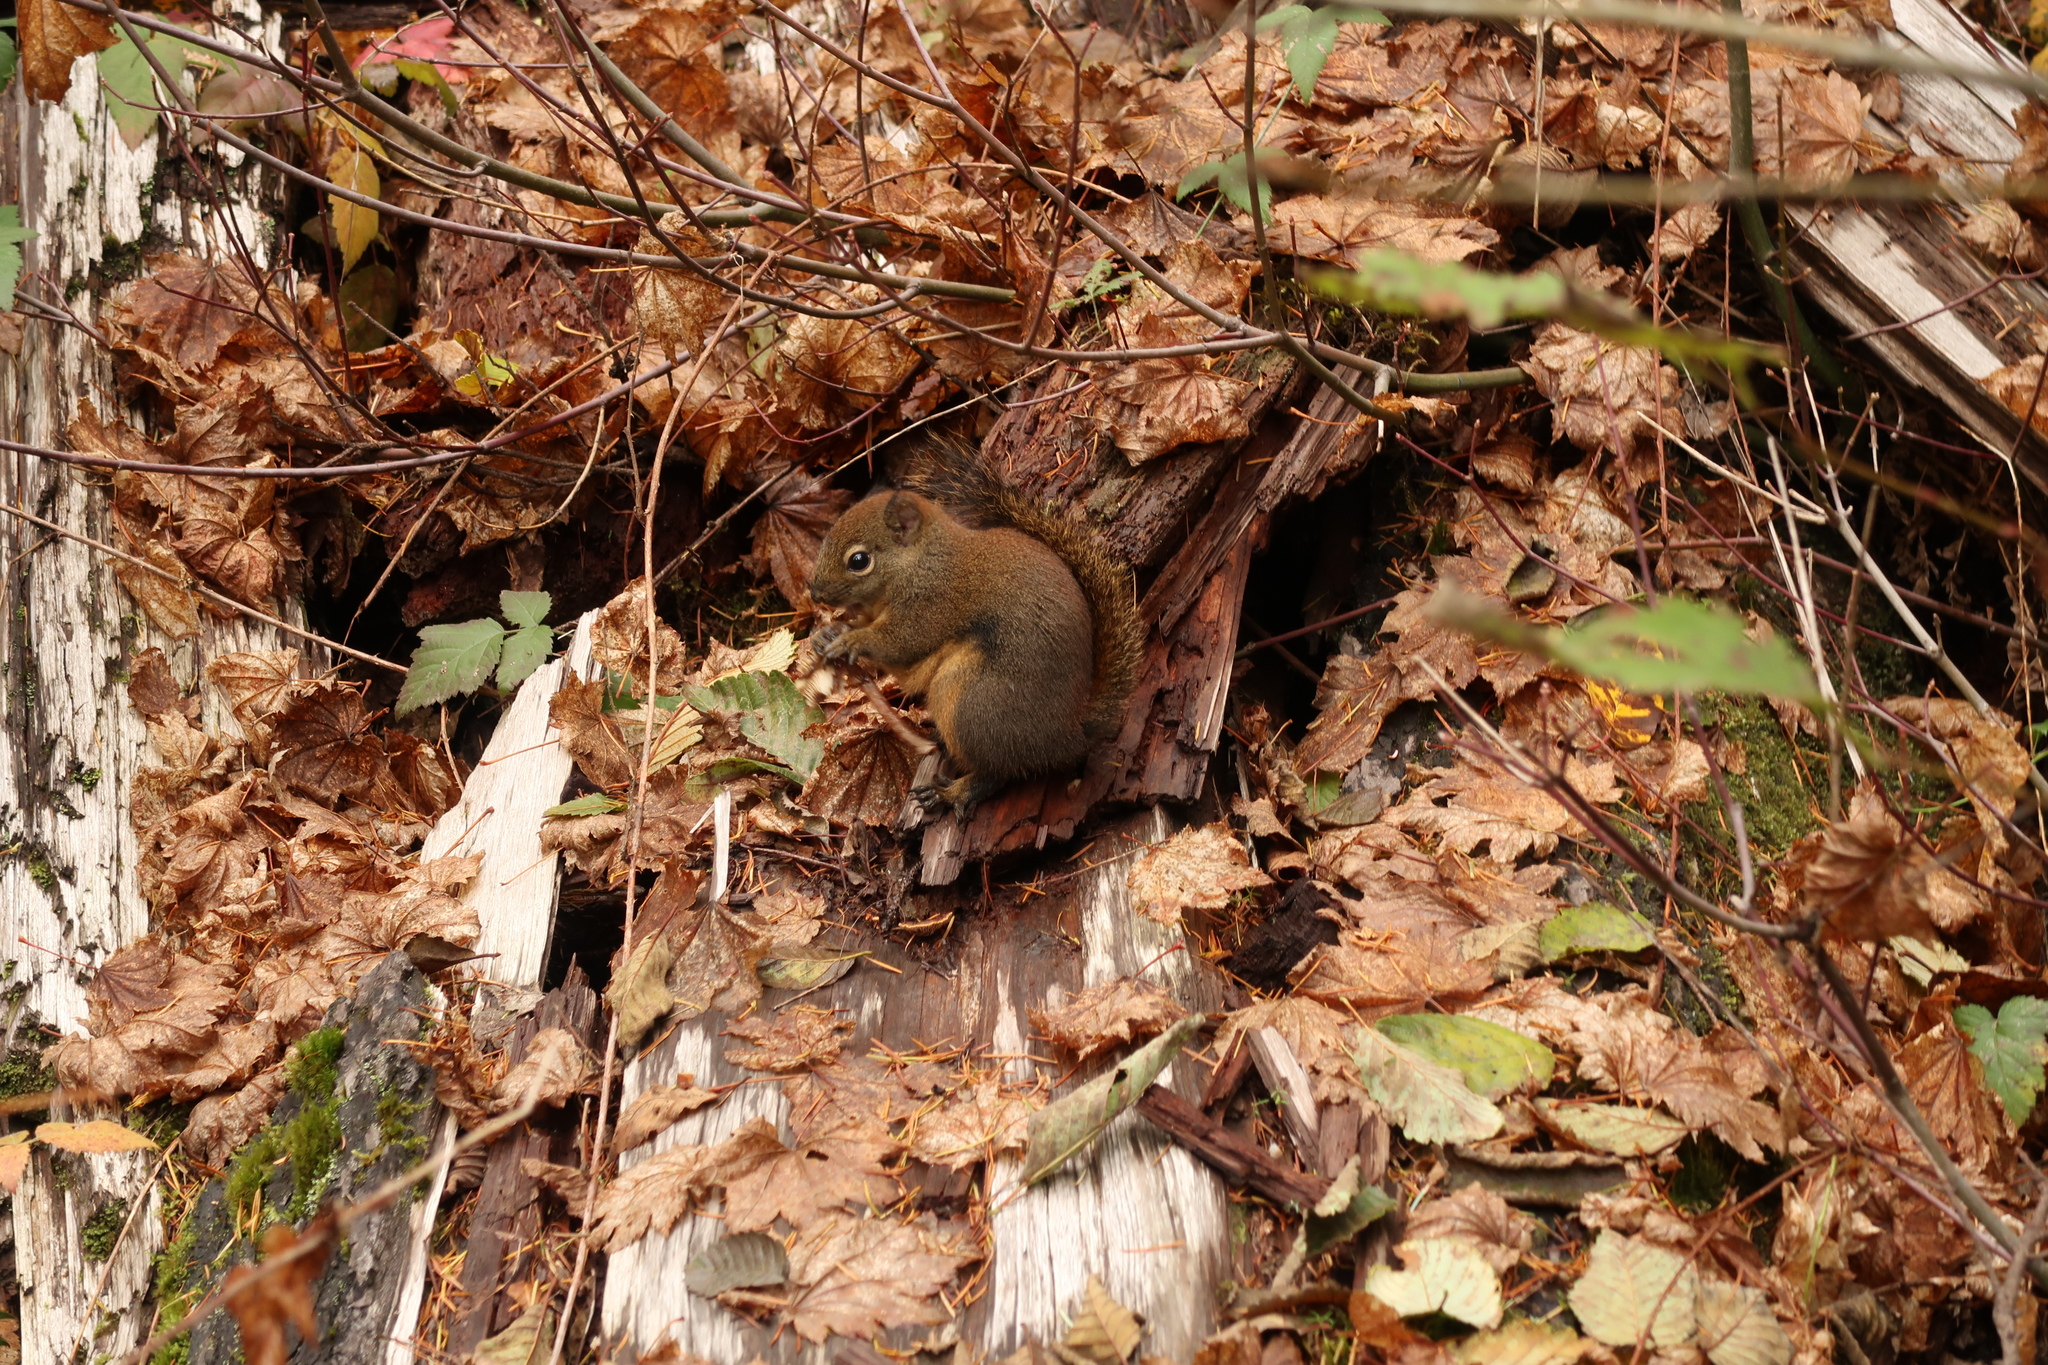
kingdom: Animalia
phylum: Chordata
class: Mammalia
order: Rodentia
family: Sciuridae
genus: Tamiasciurus
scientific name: Tamiasciurus douglasii
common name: Douglas's squirrel
